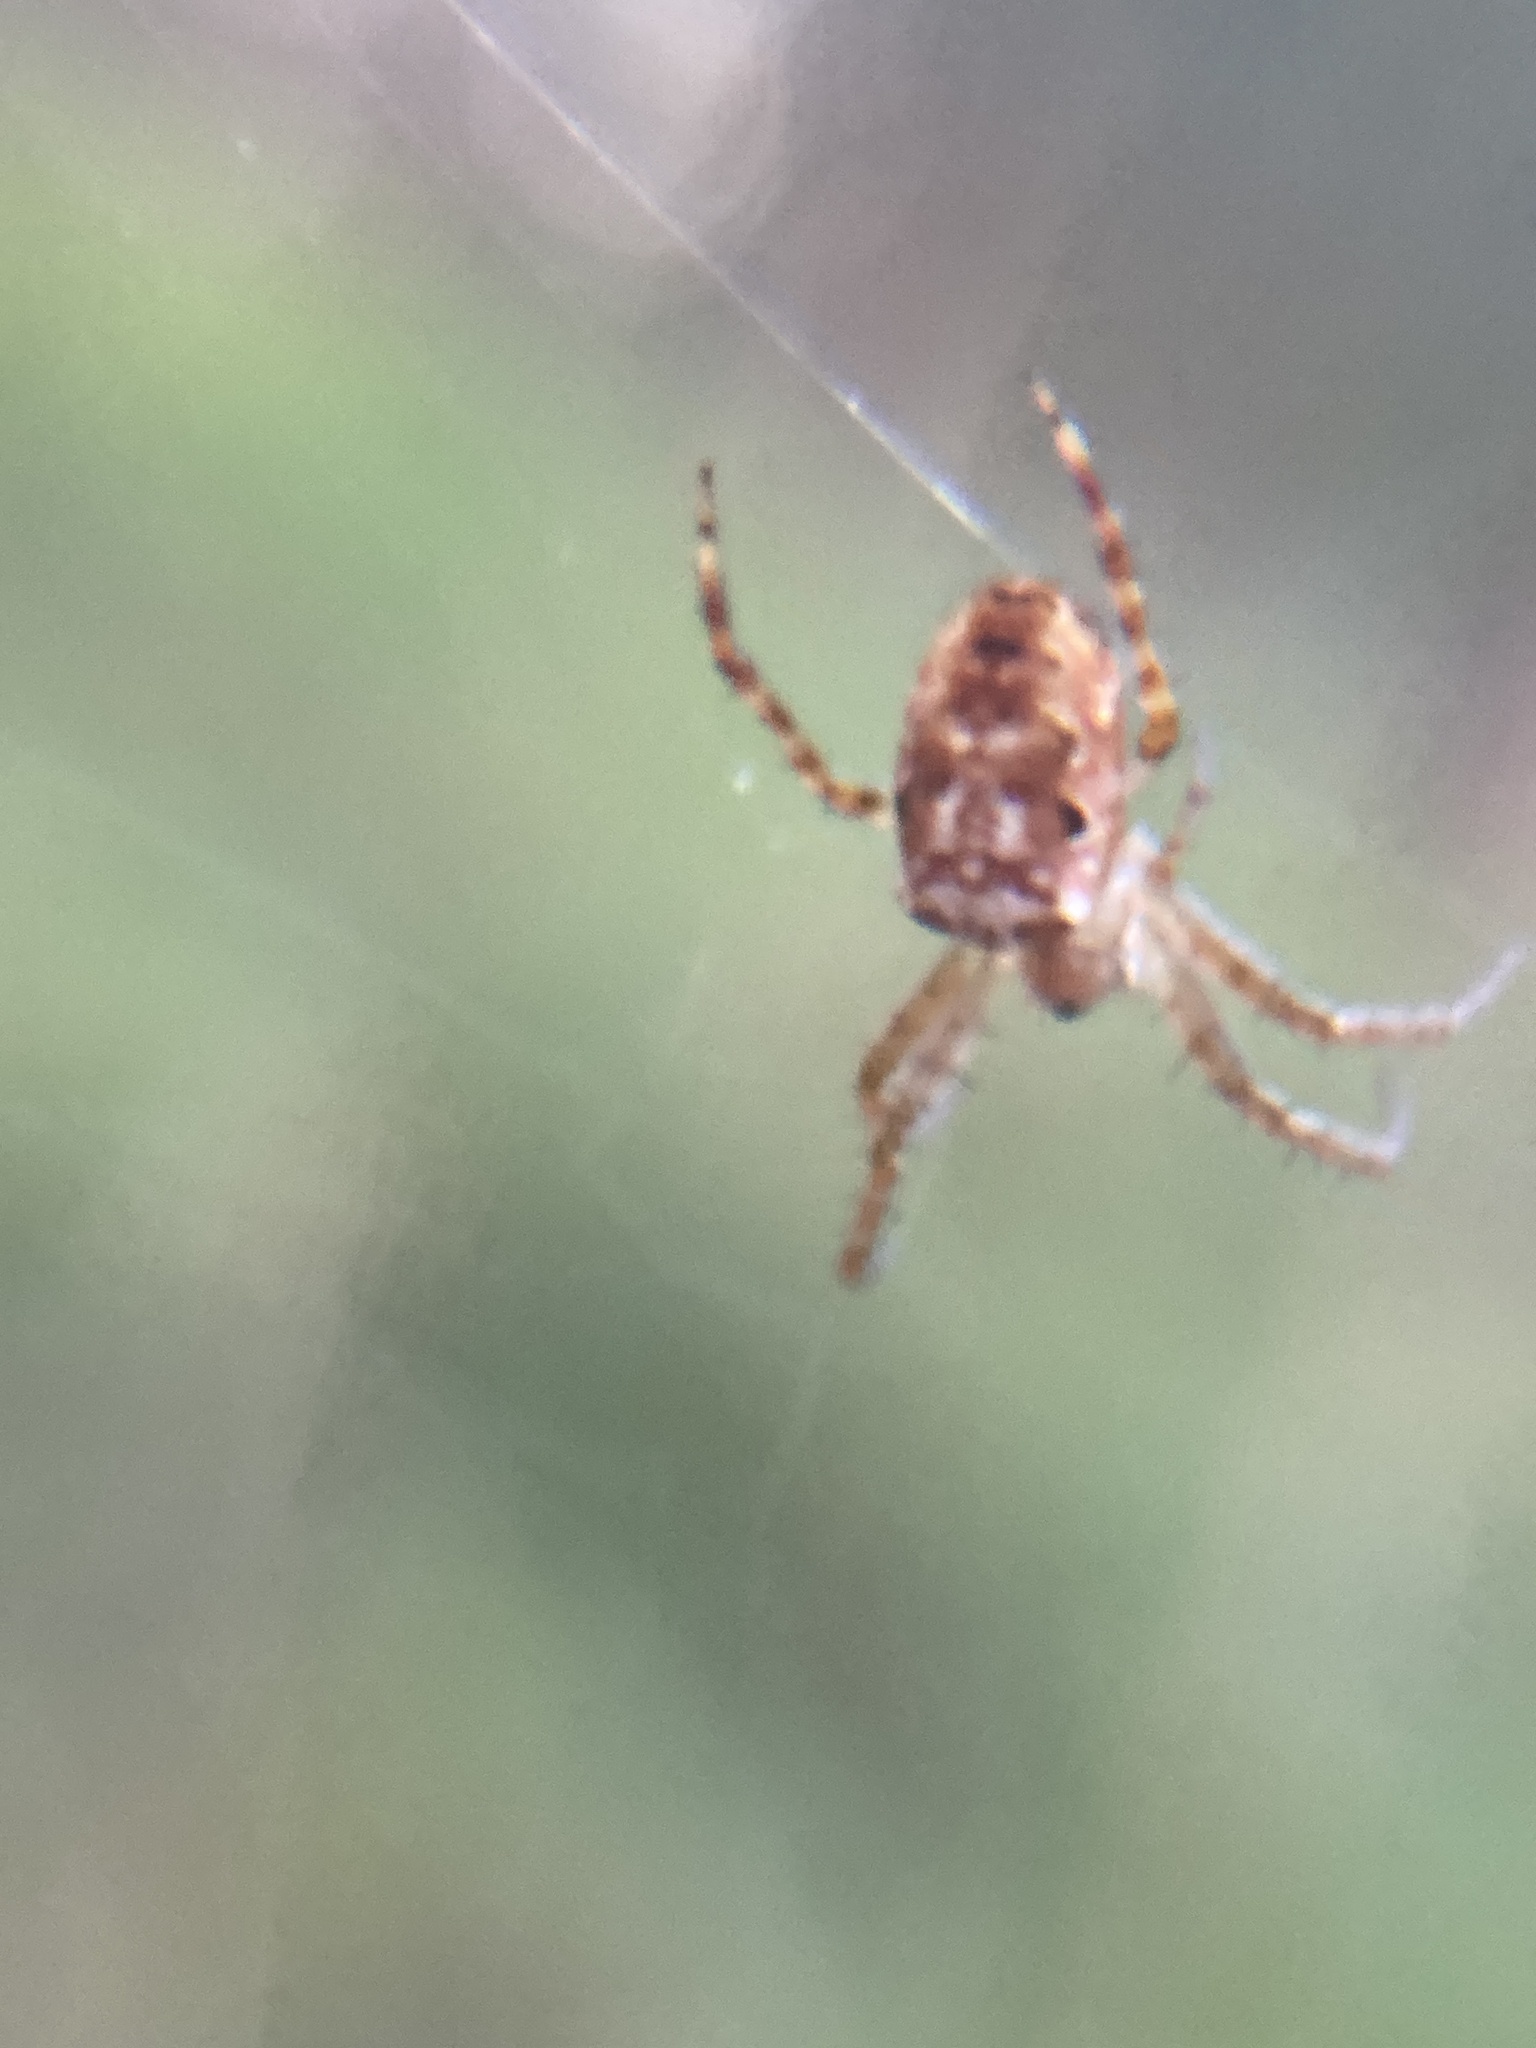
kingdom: Animalia
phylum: Arthropoda
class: Arachnida
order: Araneae
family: Araneidae
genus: Plebs
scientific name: Plebs eburnus
